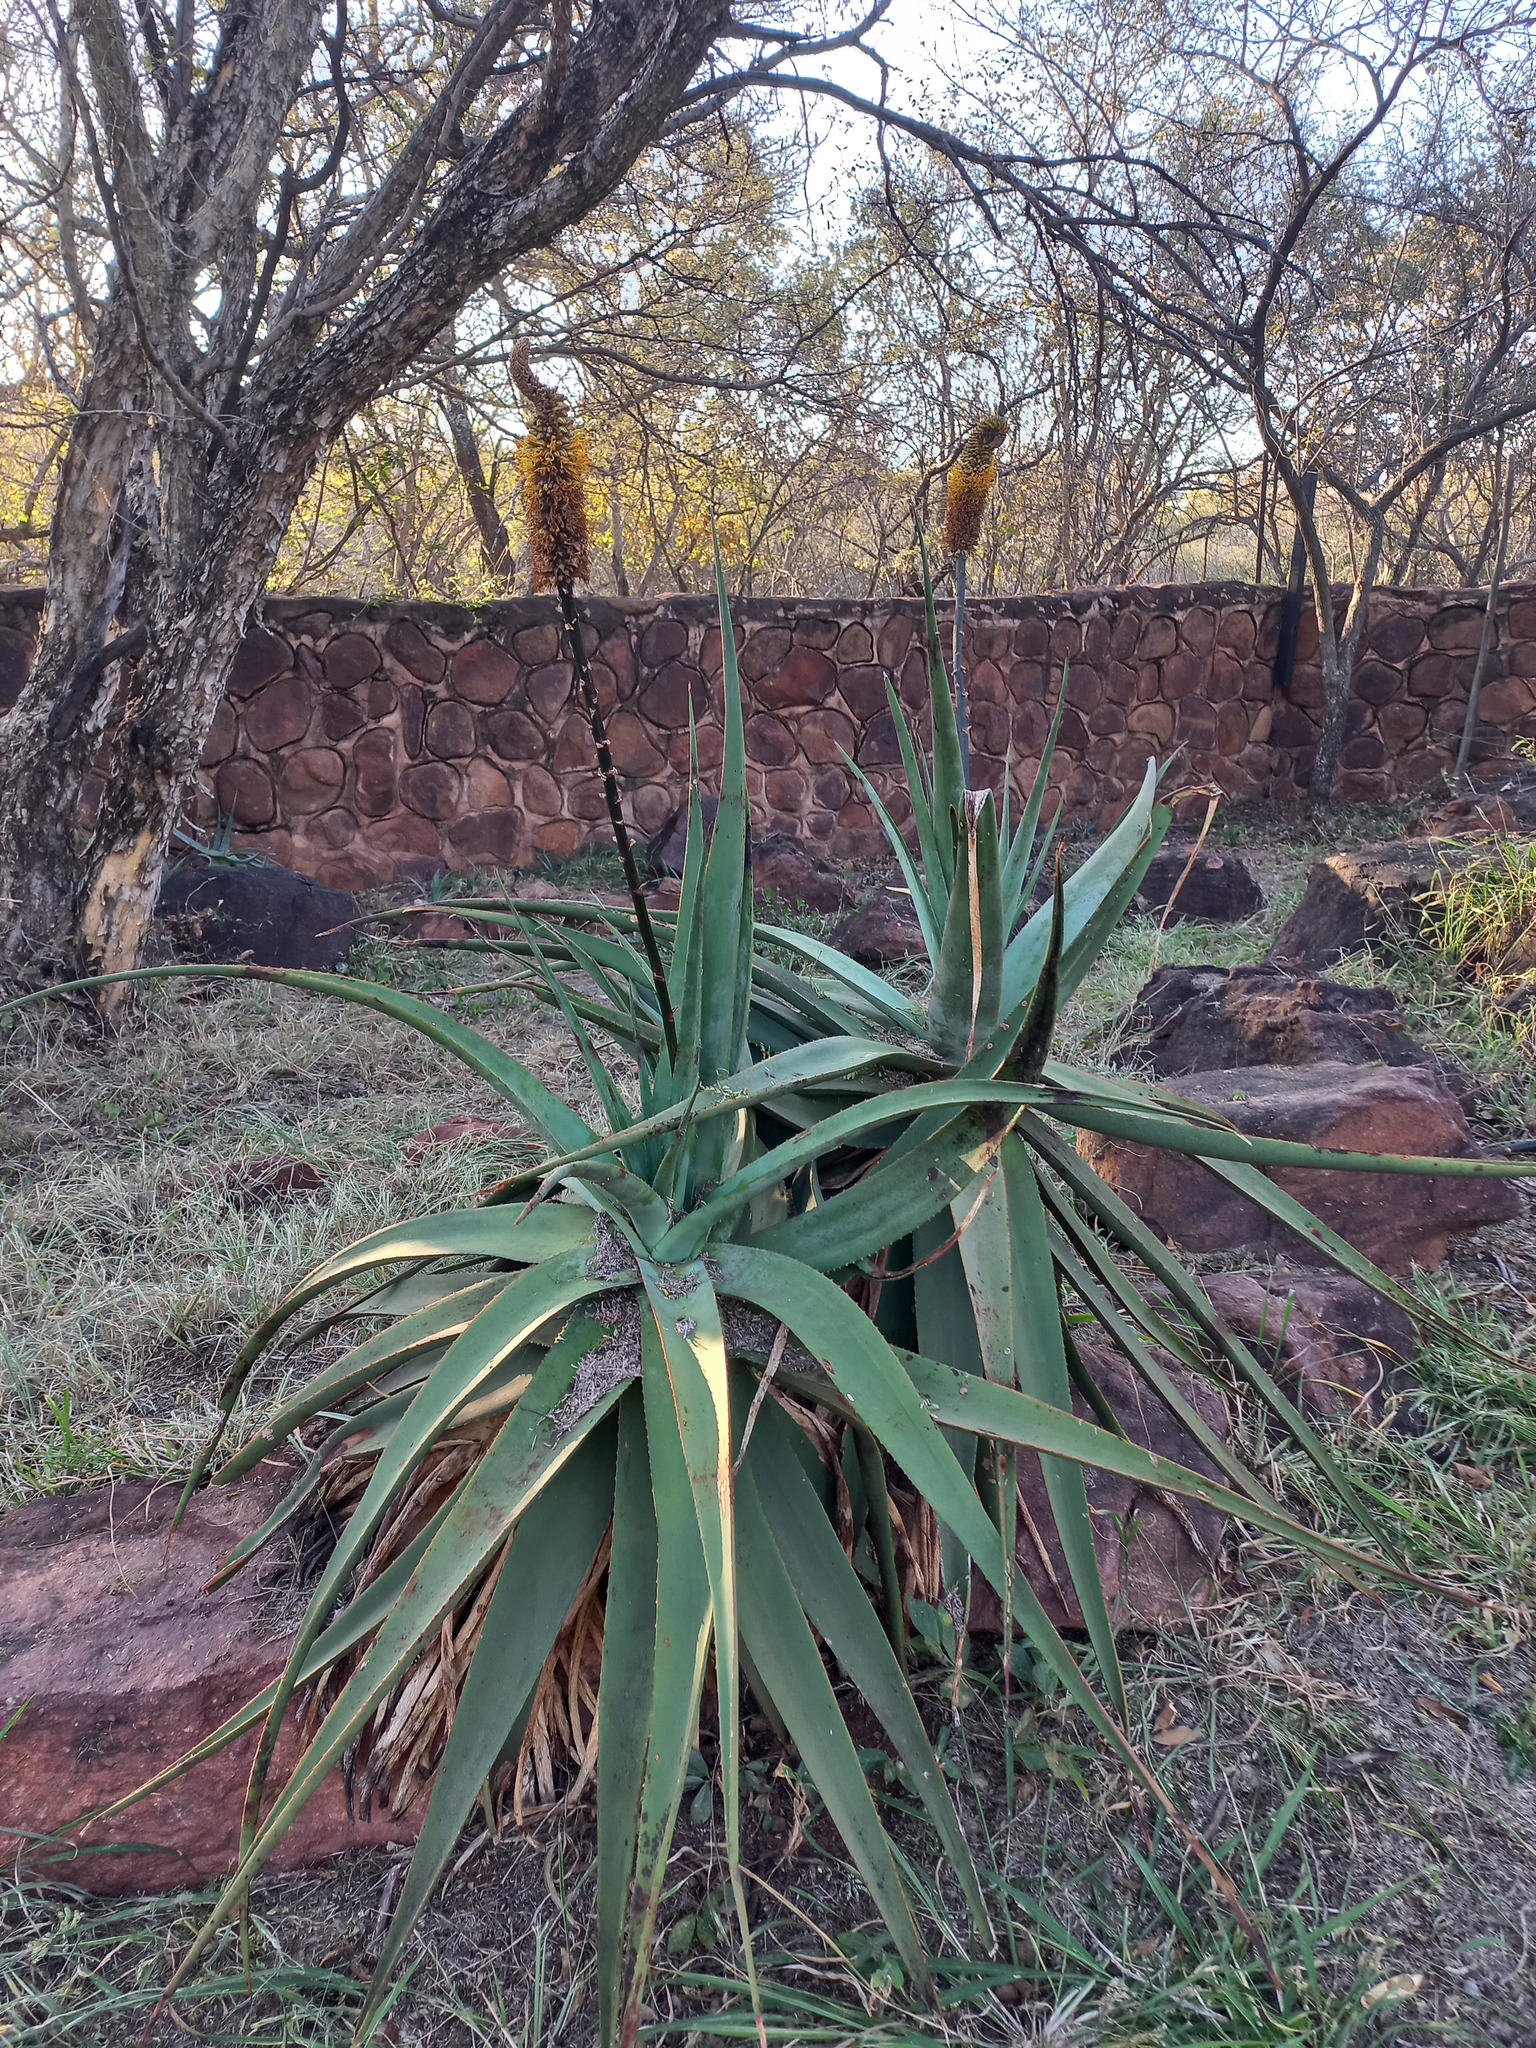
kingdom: Plantae
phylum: Tracheophyta
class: Liliopsida
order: Asparagales
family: Asphodelaceae
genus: Aloe
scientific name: Aloe spicata
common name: Gazaland aloe
